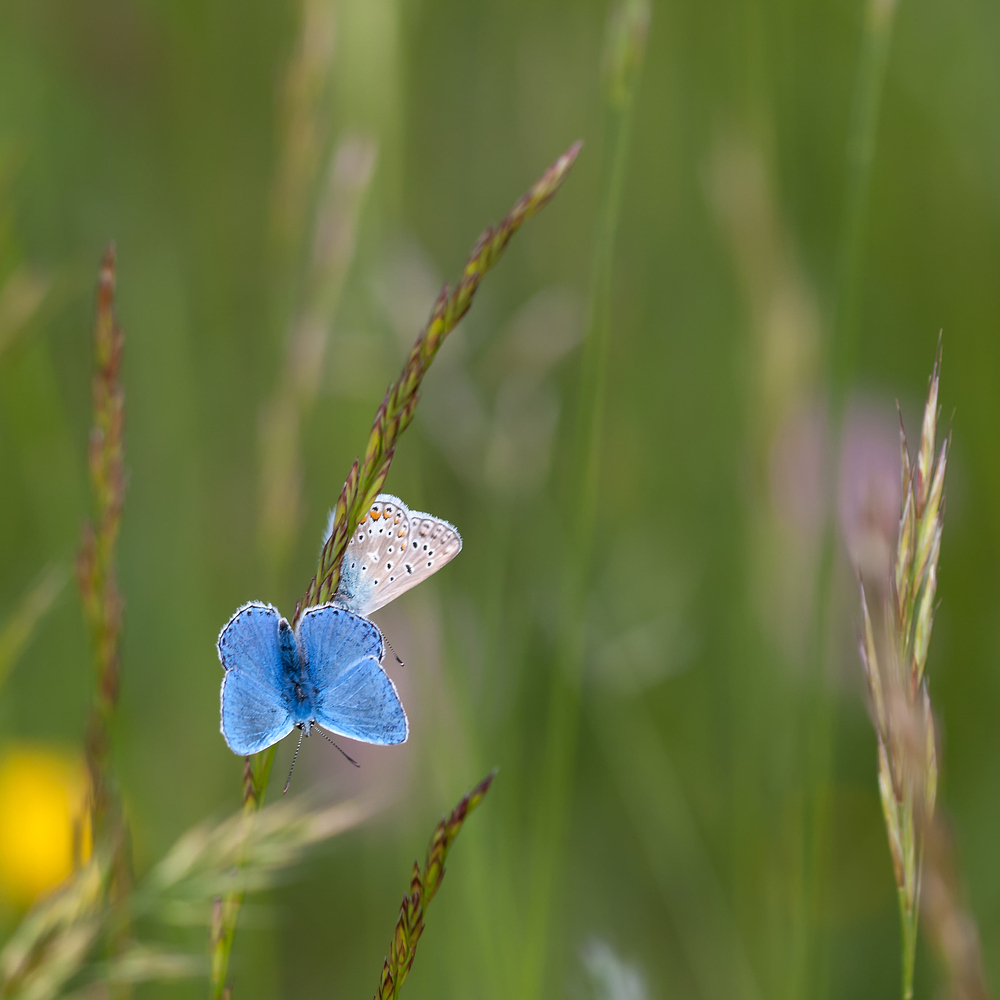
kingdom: Animalia
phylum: Arthropoda
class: Insecta
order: Lepidoptera
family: Lycaenidae
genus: Lysandra
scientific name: Lysandra bellargus
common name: Adonis blue
